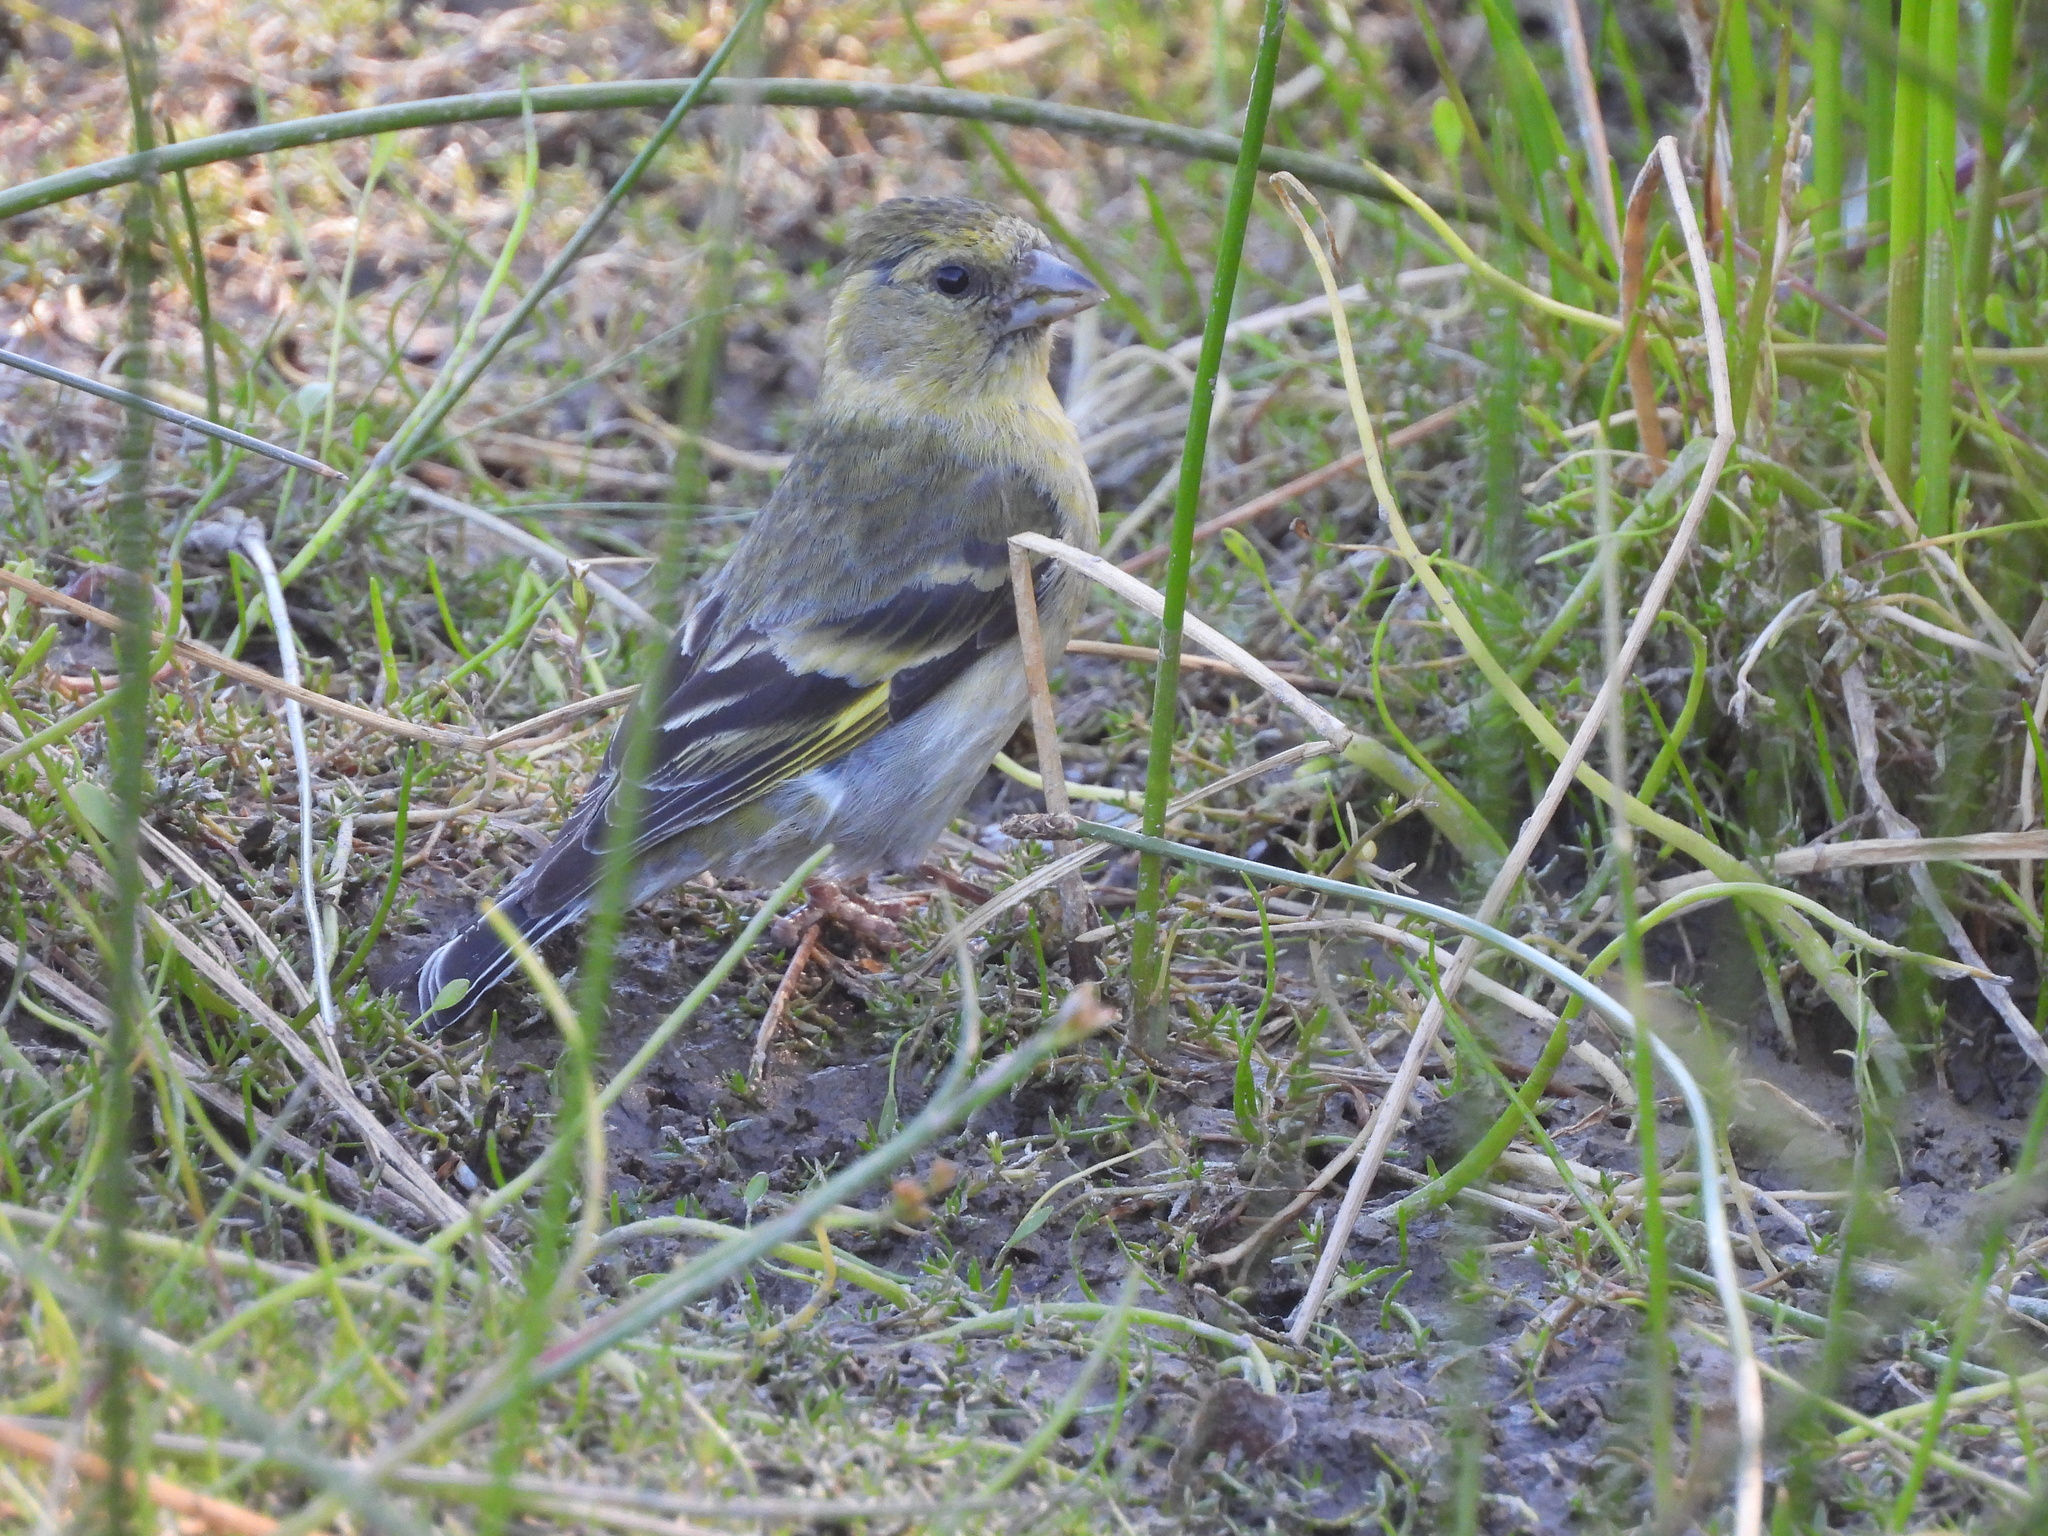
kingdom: Animalia
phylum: Chordata
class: Aves
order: Passeriformes
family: Fringillidae
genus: Spinus
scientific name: Spinus barbatus
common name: Black-chinned siskin
